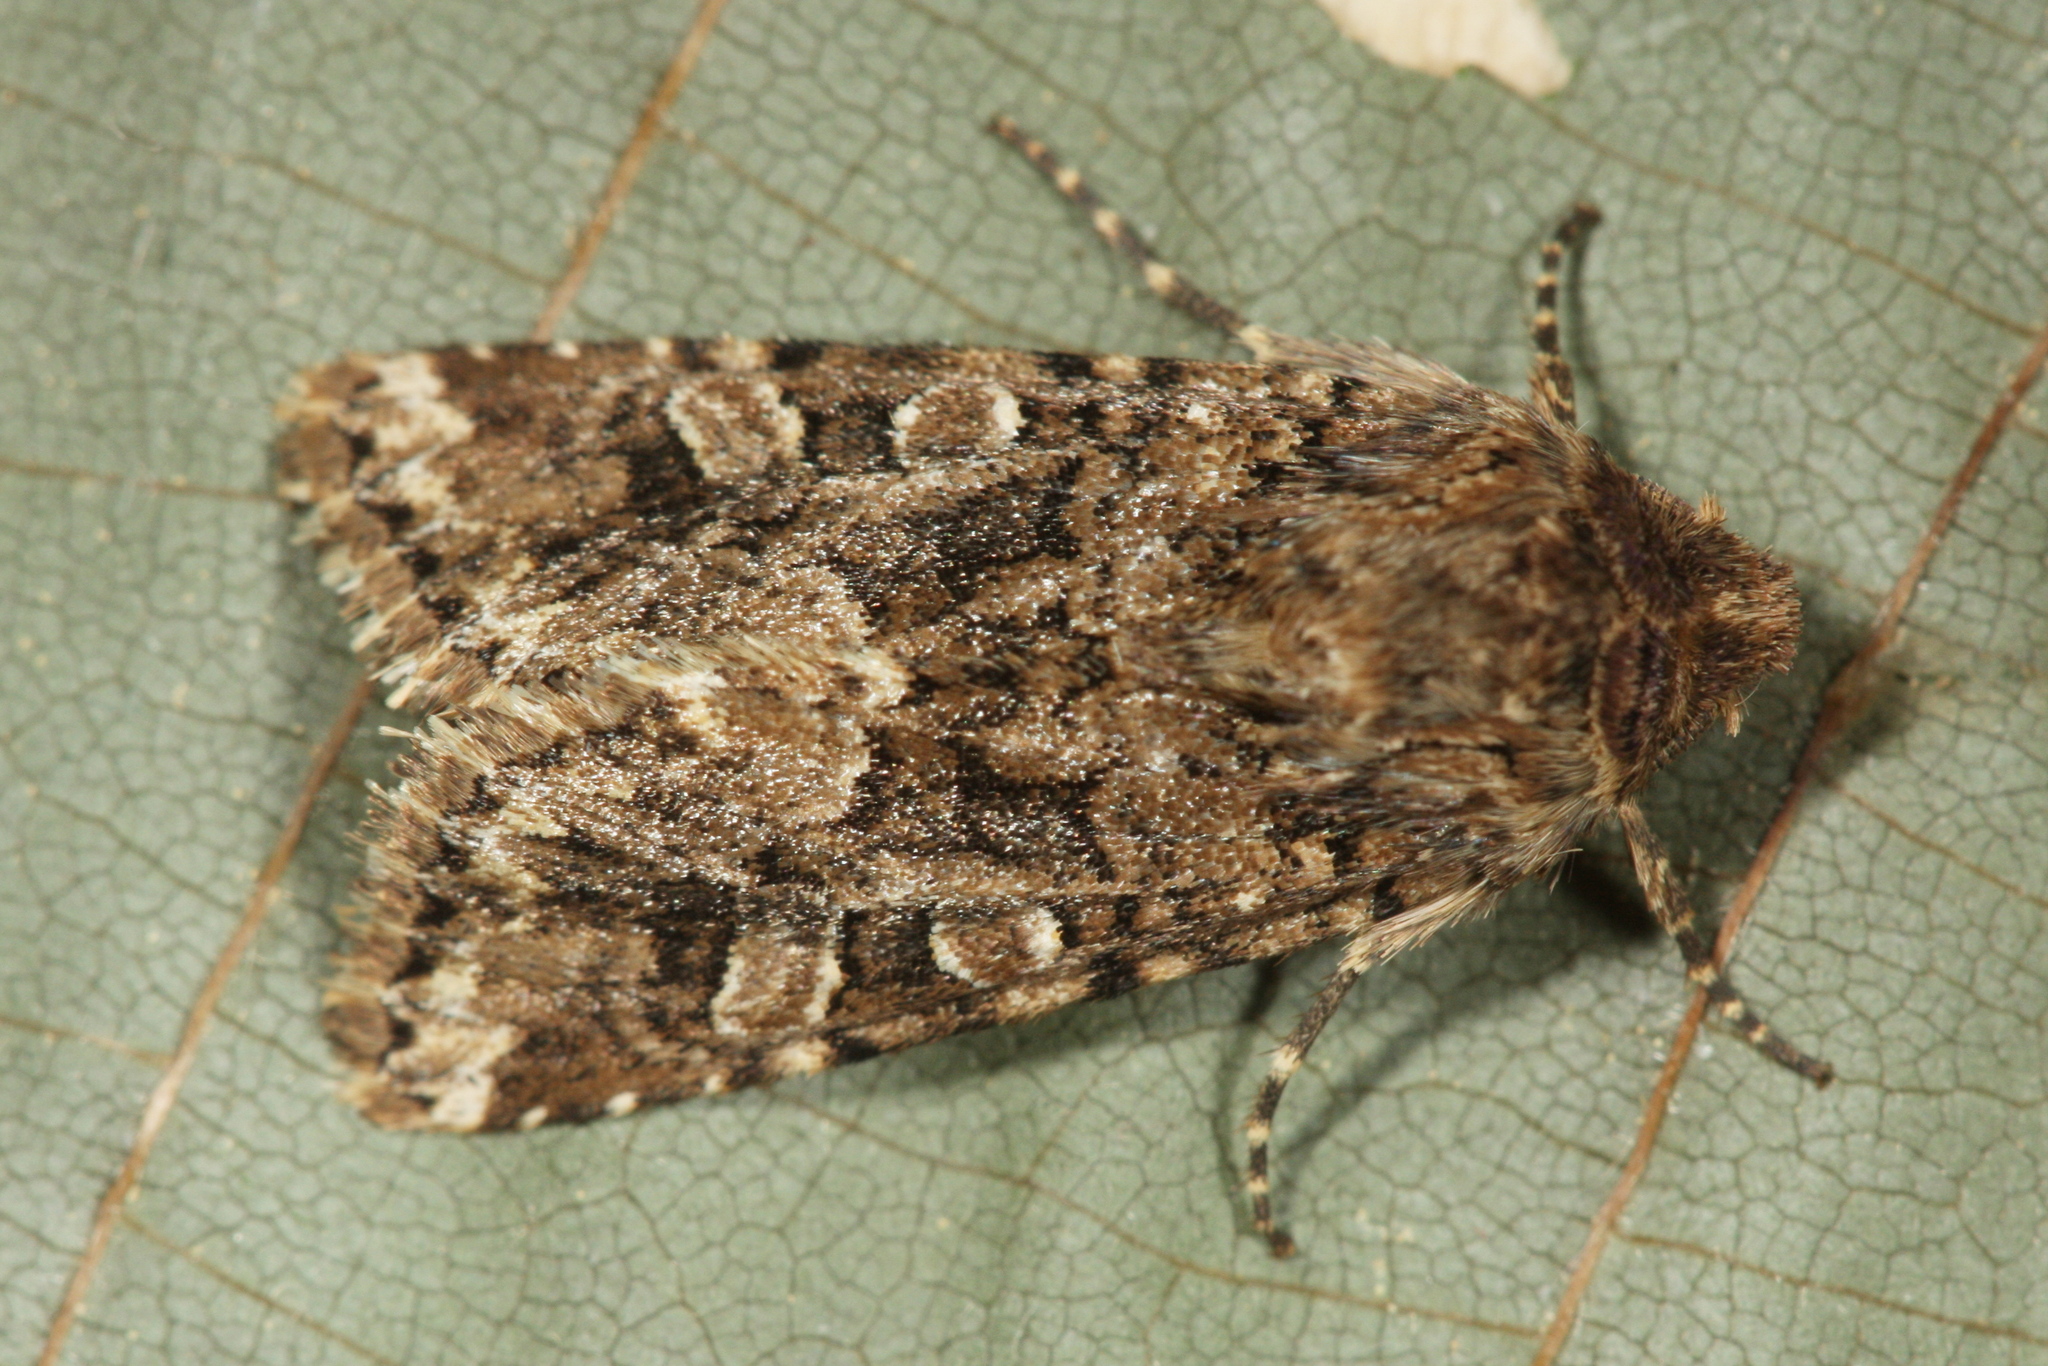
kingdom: Animalia
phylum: Arthropoda
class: Insecta
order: Lepidoptera
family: Noctuidae
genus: Hadena
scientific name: Hadena perplexa
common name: Tawny shears
